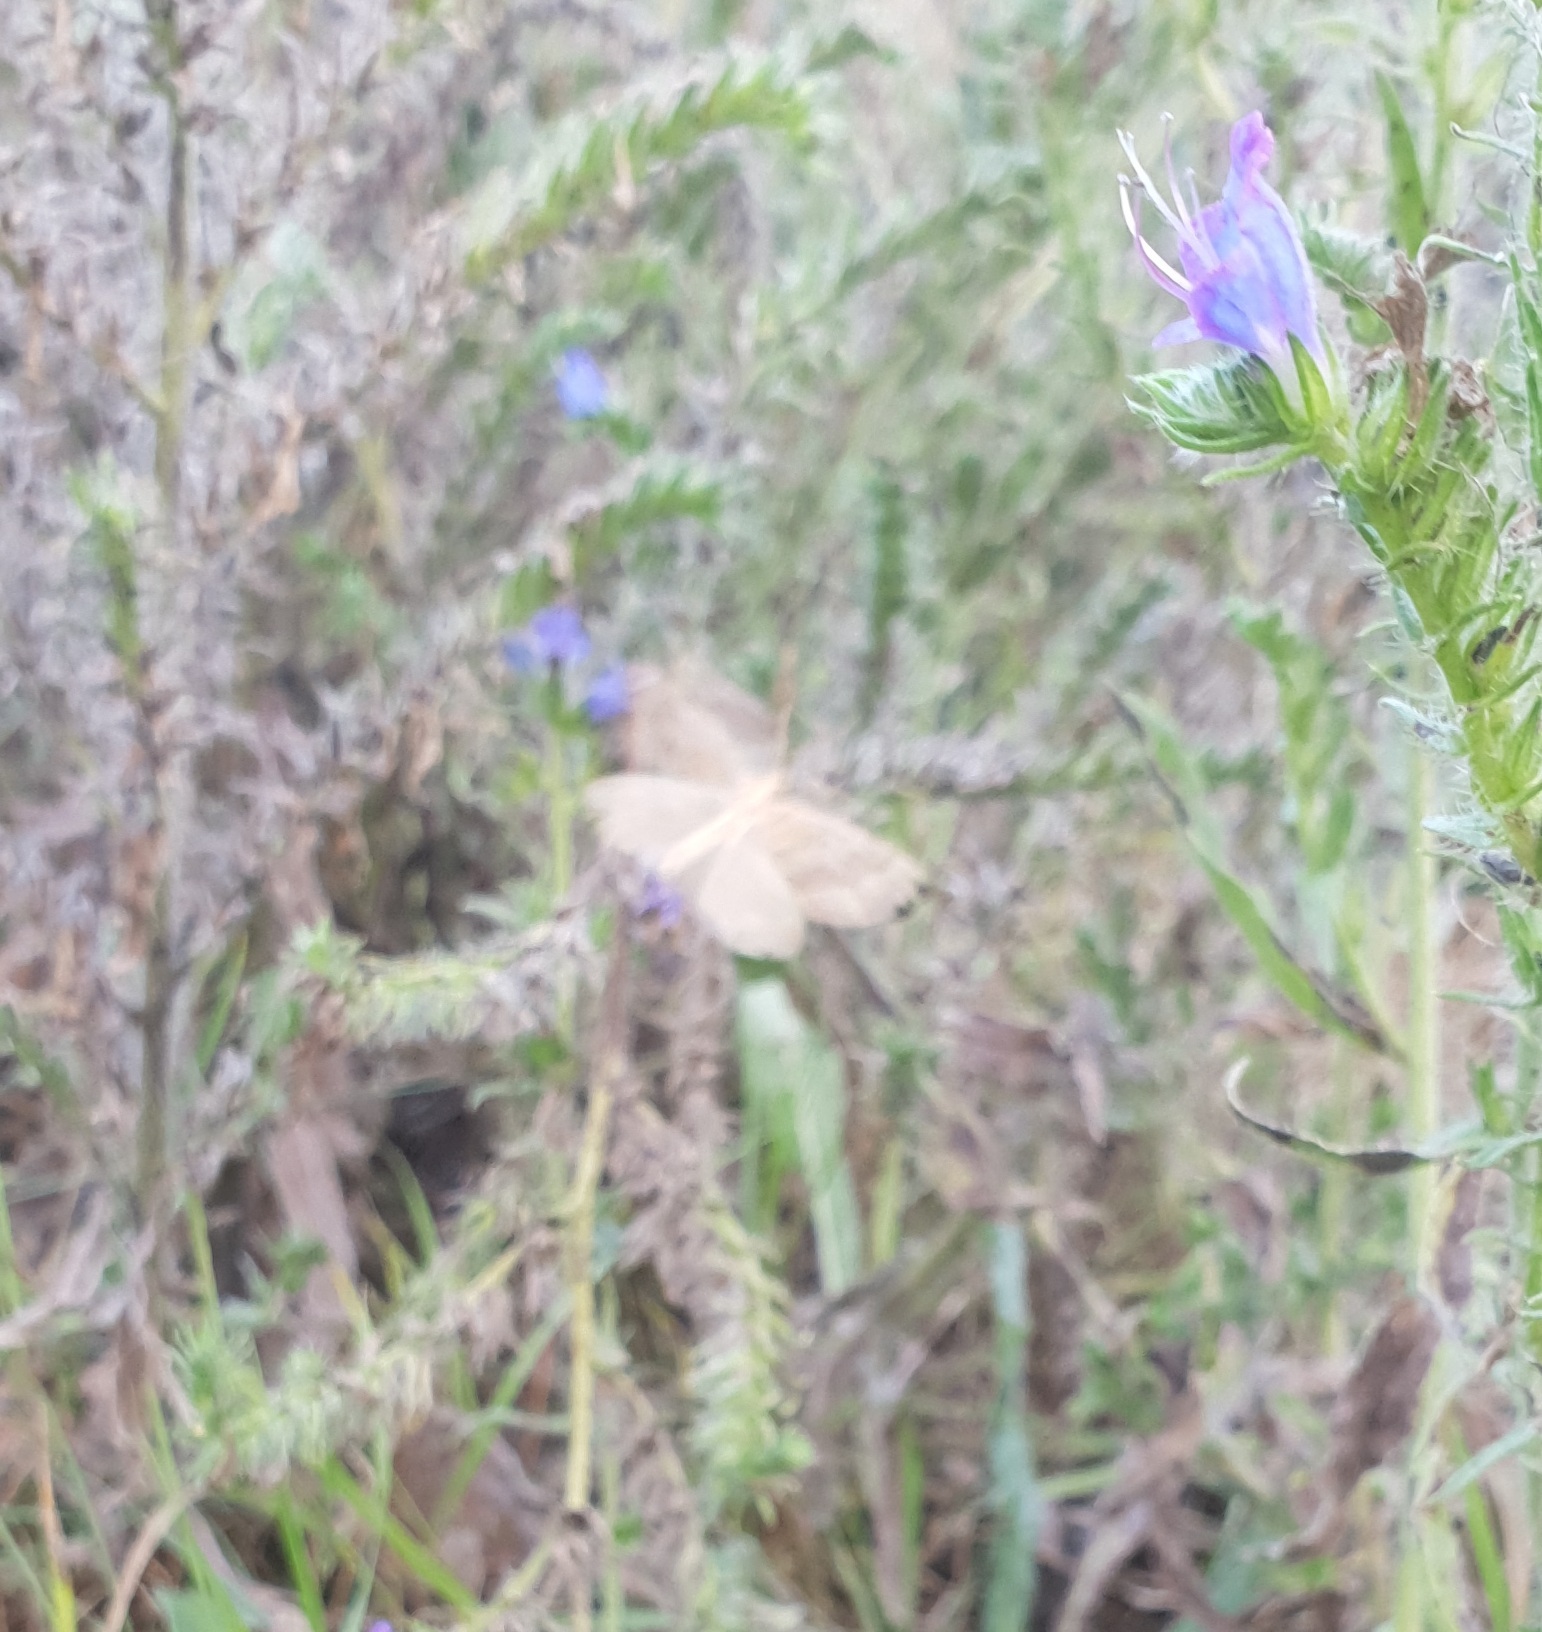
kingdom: Animalia
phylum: Arthropoda
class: Insecta
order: Lepidoptera
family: Geometridae
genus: Scotopteryx
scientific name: Scotopteryx chenopodiata
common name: Shaded broad-bar
